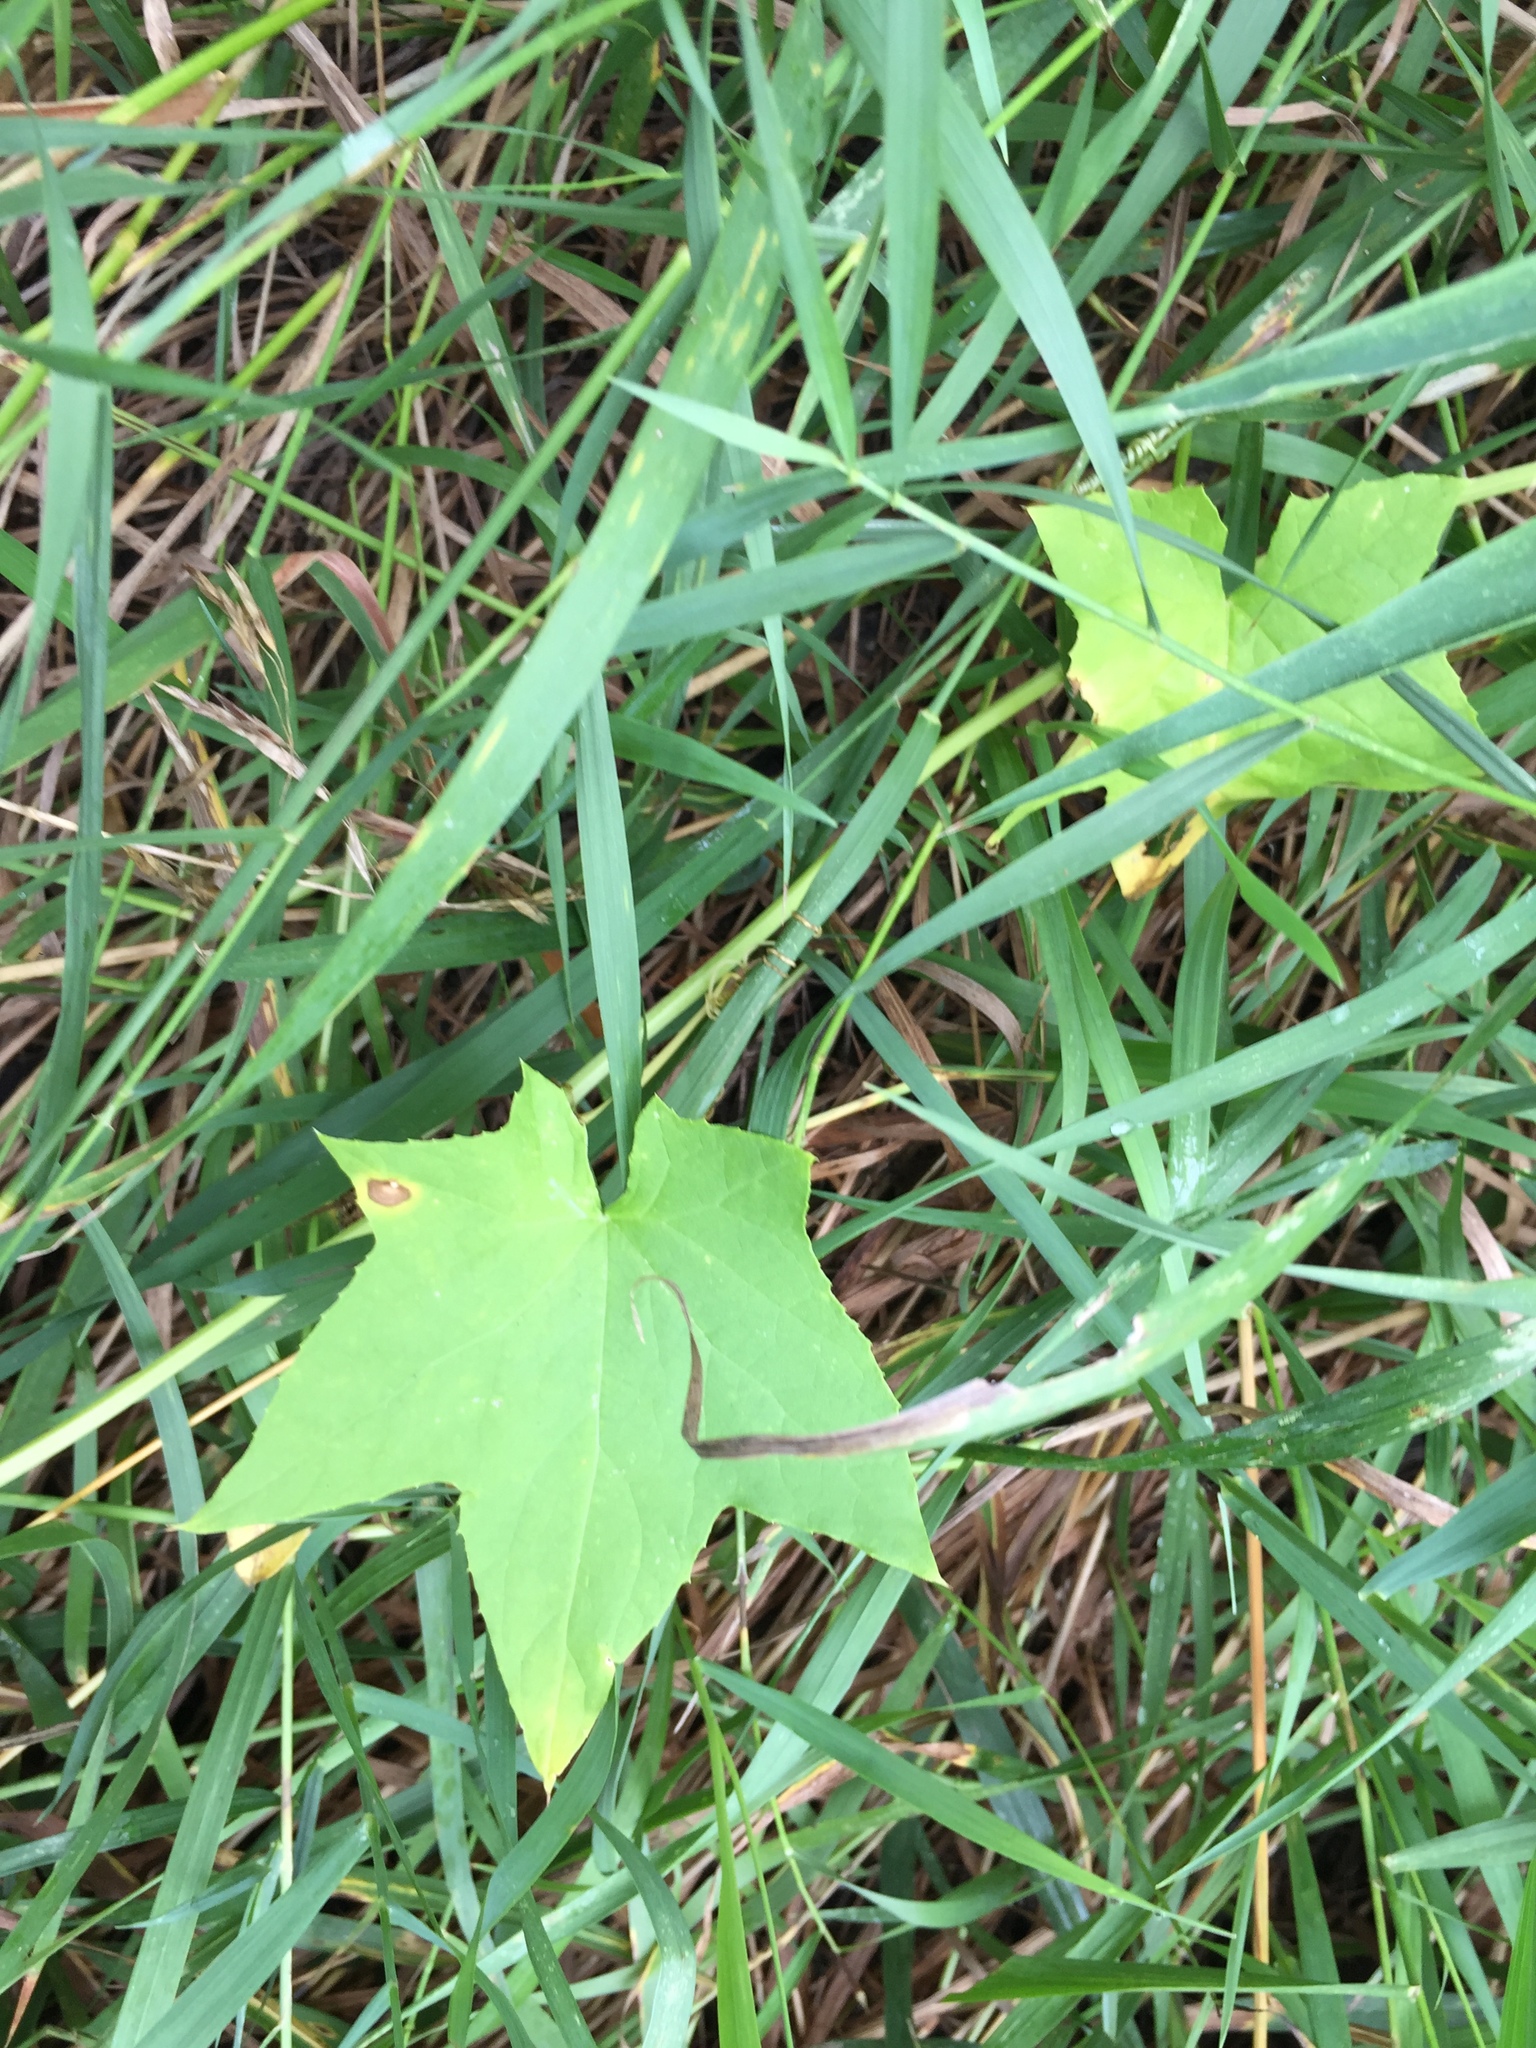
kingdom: Plantae
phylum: Tracheophyta
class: Magnoliopsida
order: Cucurbitales
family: Cucurbitaceae
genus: Echinocystis
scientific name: Echinocystis lobata
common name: Wild cucumber
